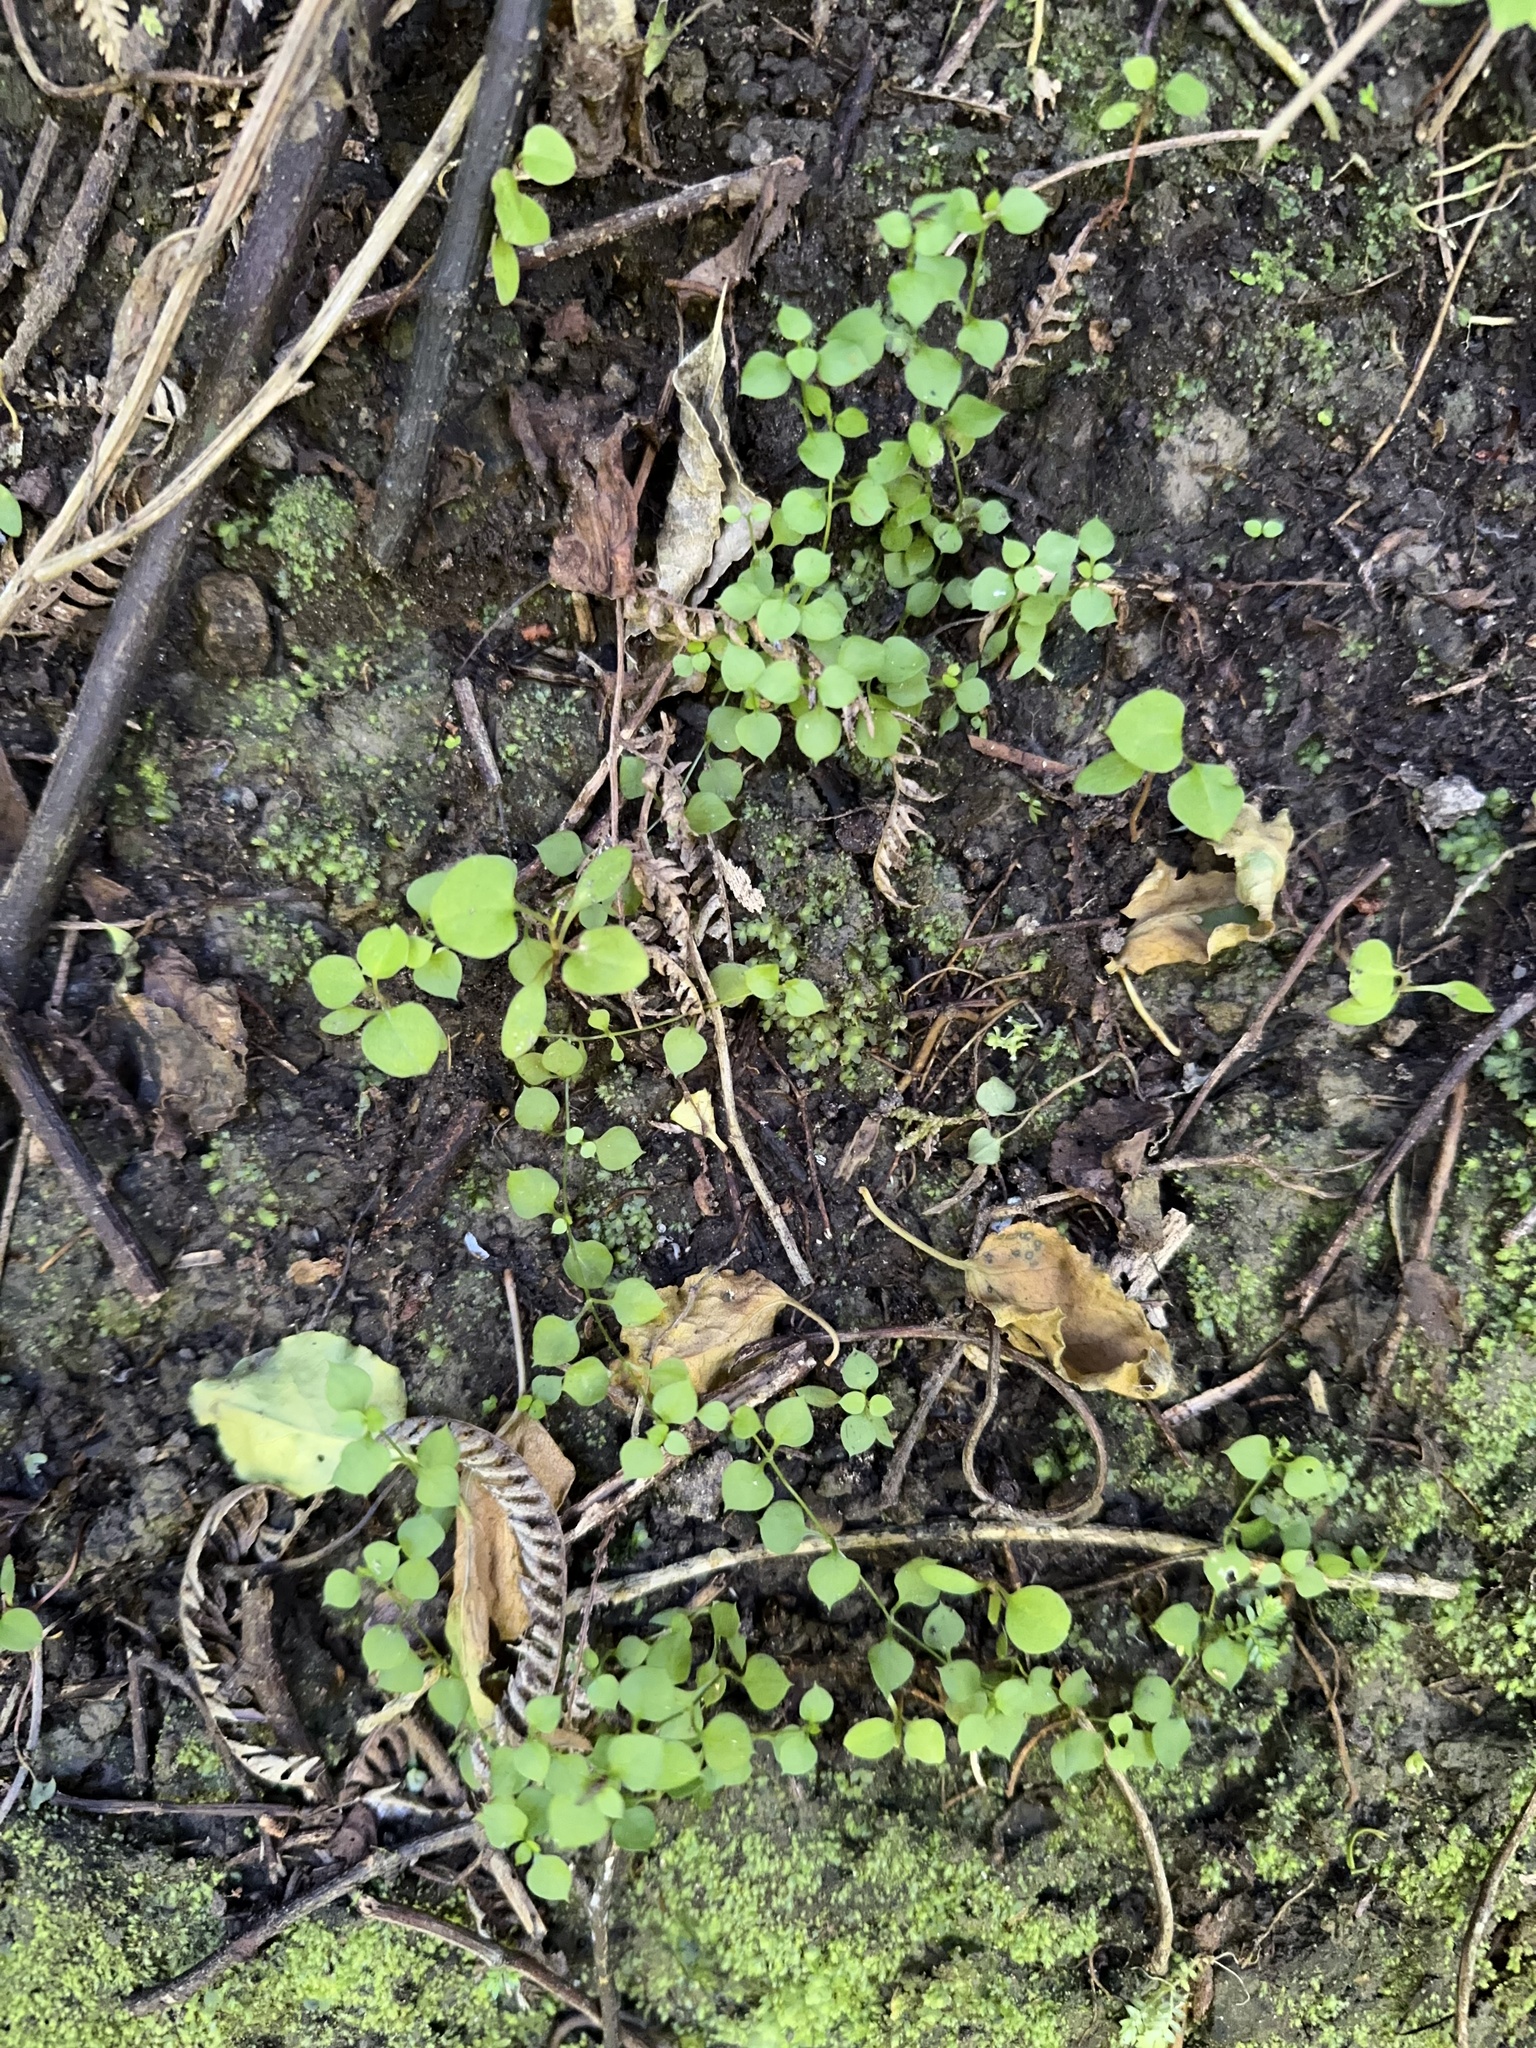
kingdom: Plantae
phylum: Tracheophyta
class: Magnoliopsida
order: Caryophyllales
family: Caryophyllaceae
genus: Stellaria
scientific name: Stellaria parviflora
